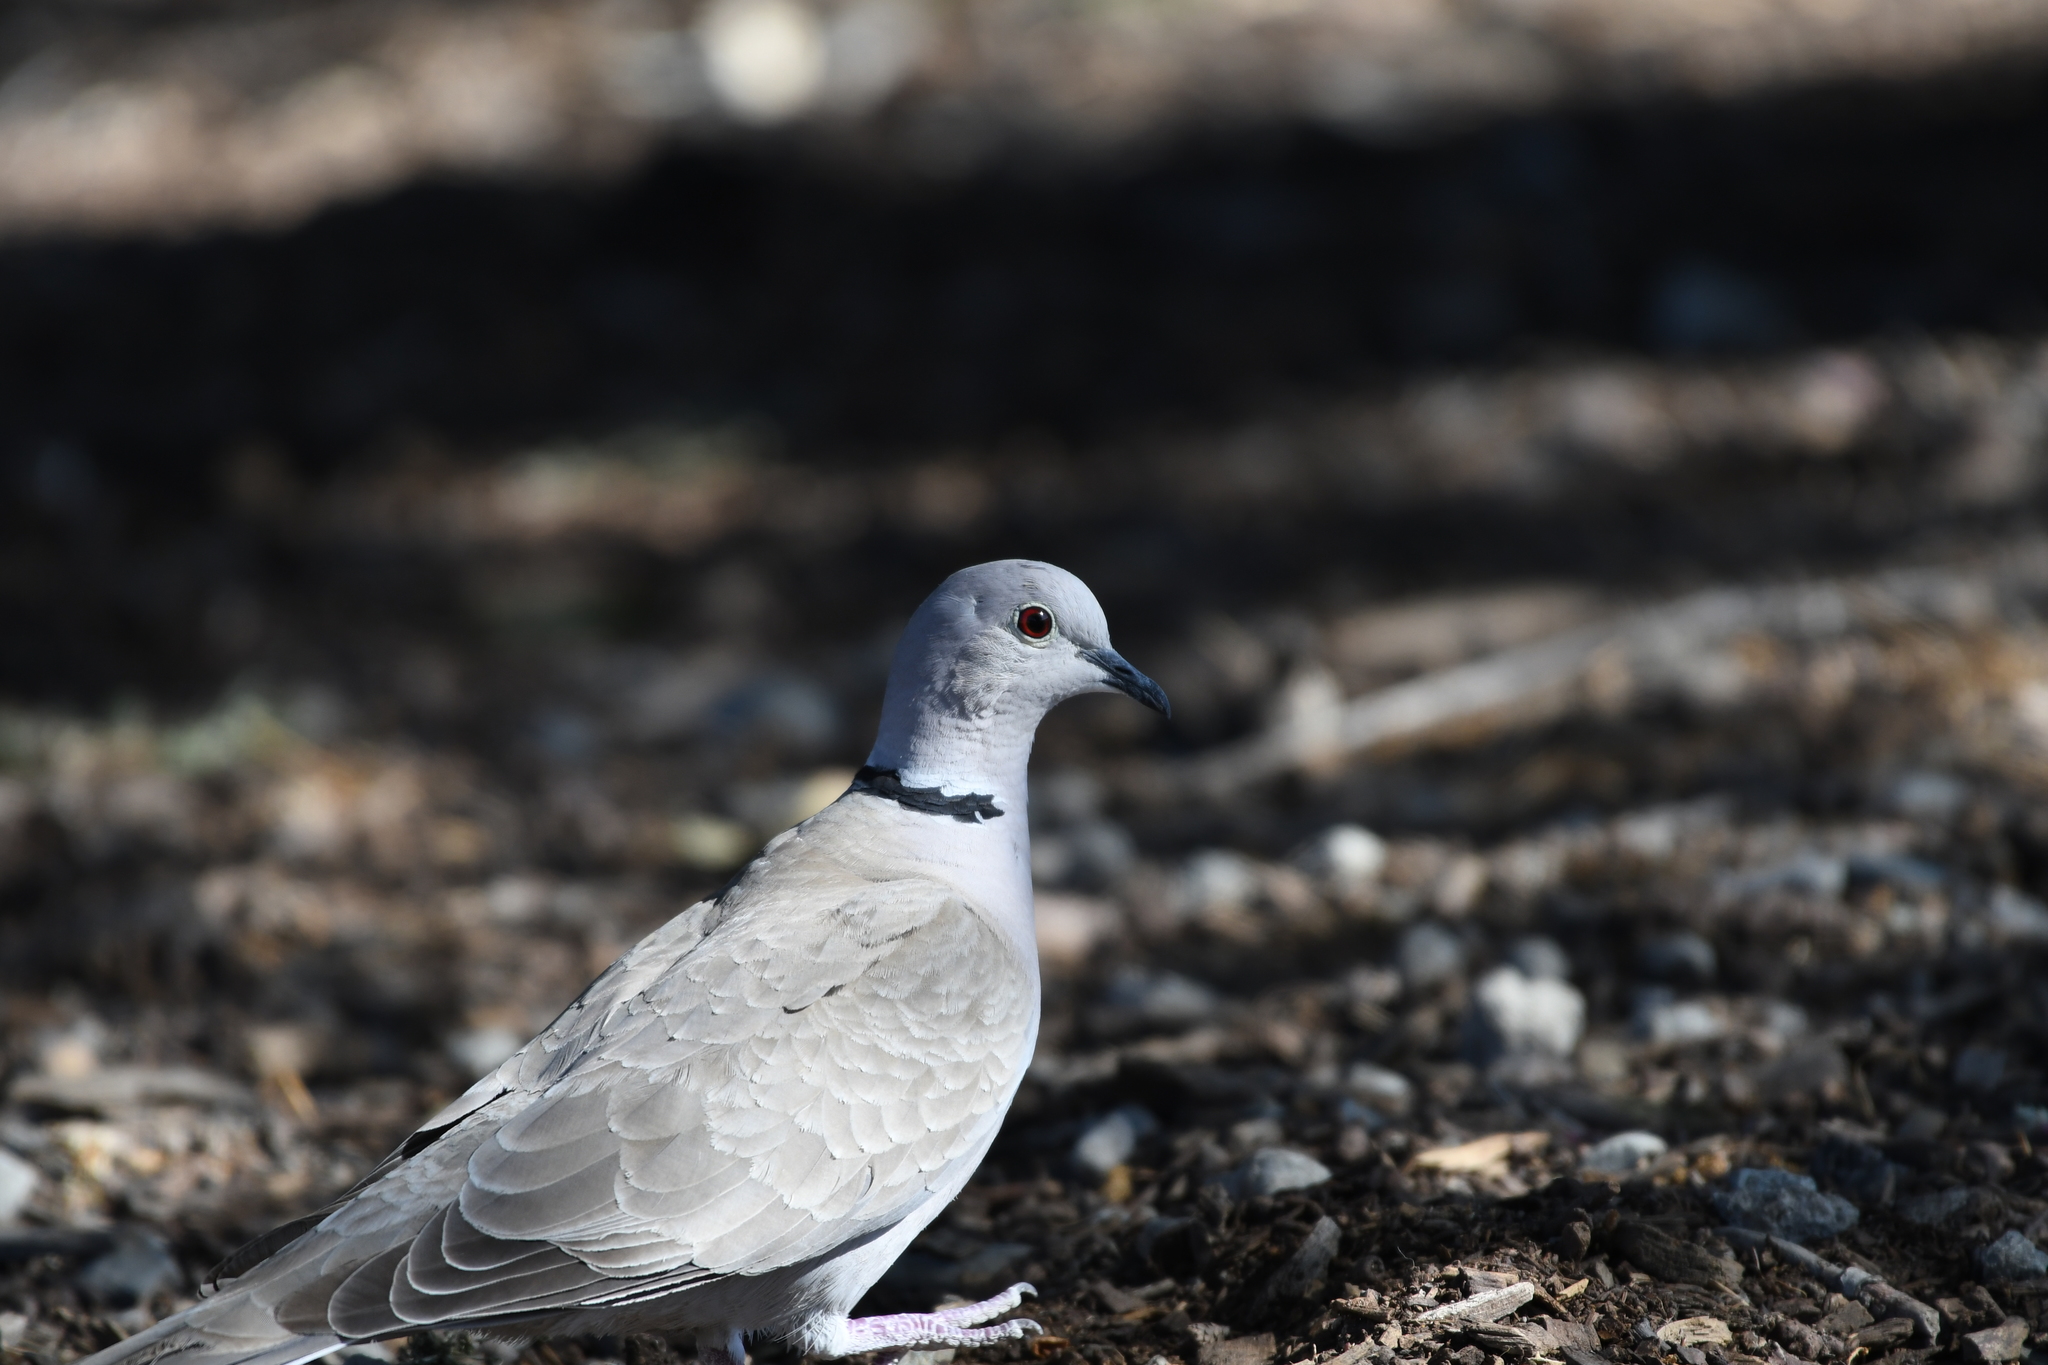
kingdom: Animalia
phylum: Chordata
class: Aves
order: Columbiformes
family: Columbidae
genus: Streptopelia
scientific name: Streptopelia decaocto
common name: Eurasian collared dove
